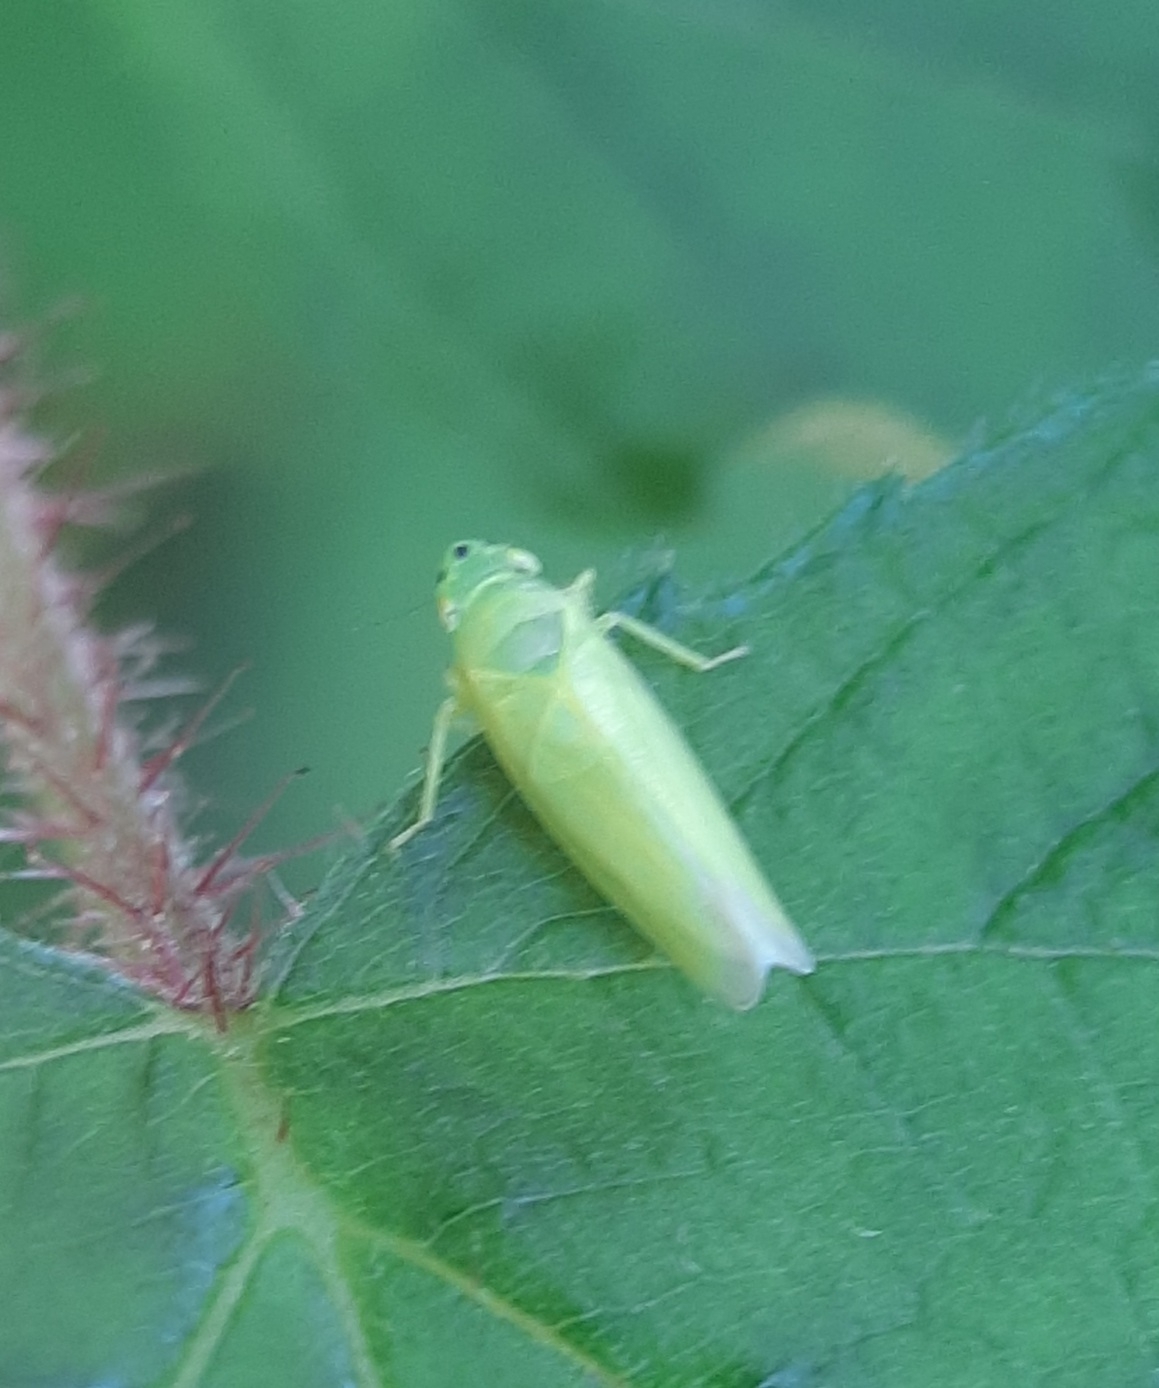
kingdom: Animalia
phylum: Arthropoda
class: Insecta
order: Hemiptera
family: Cicadellidae
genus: Pagaronia
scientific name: Pagaronia minor
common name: Leafhopper
